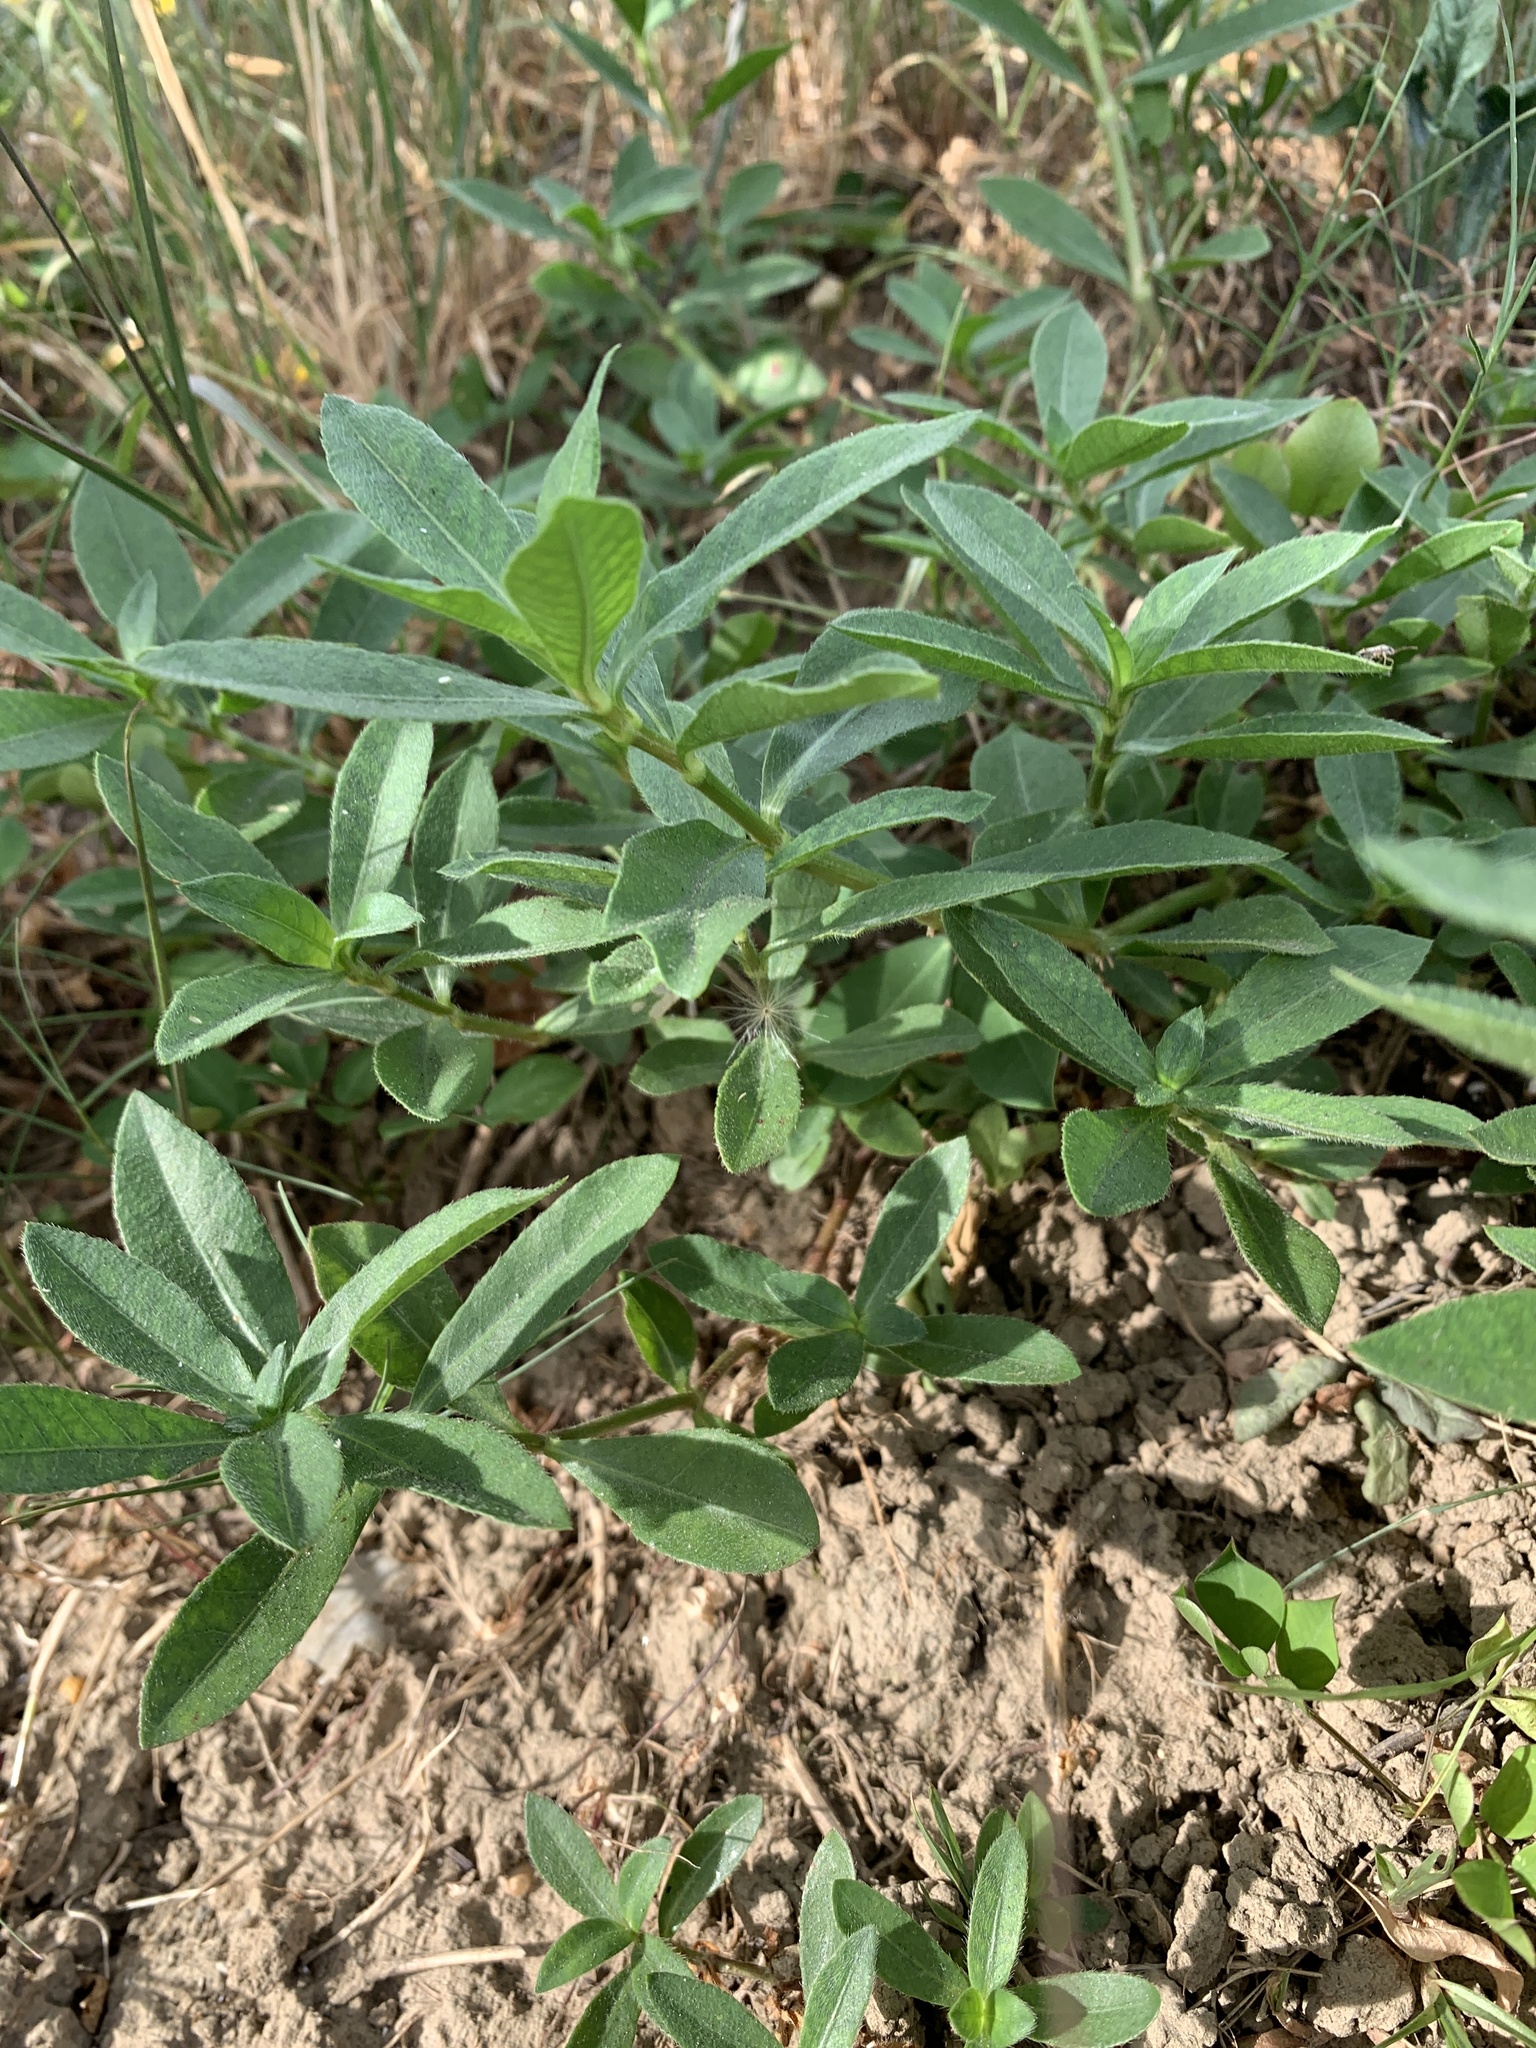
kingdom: Plantae
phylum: Tracheophyta
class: Magnoliopsida
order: Caryophyllales
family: Amaranthaceae
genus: Alternanthera
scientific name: Alternanthera philoxeroides
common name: Alligatorweed
